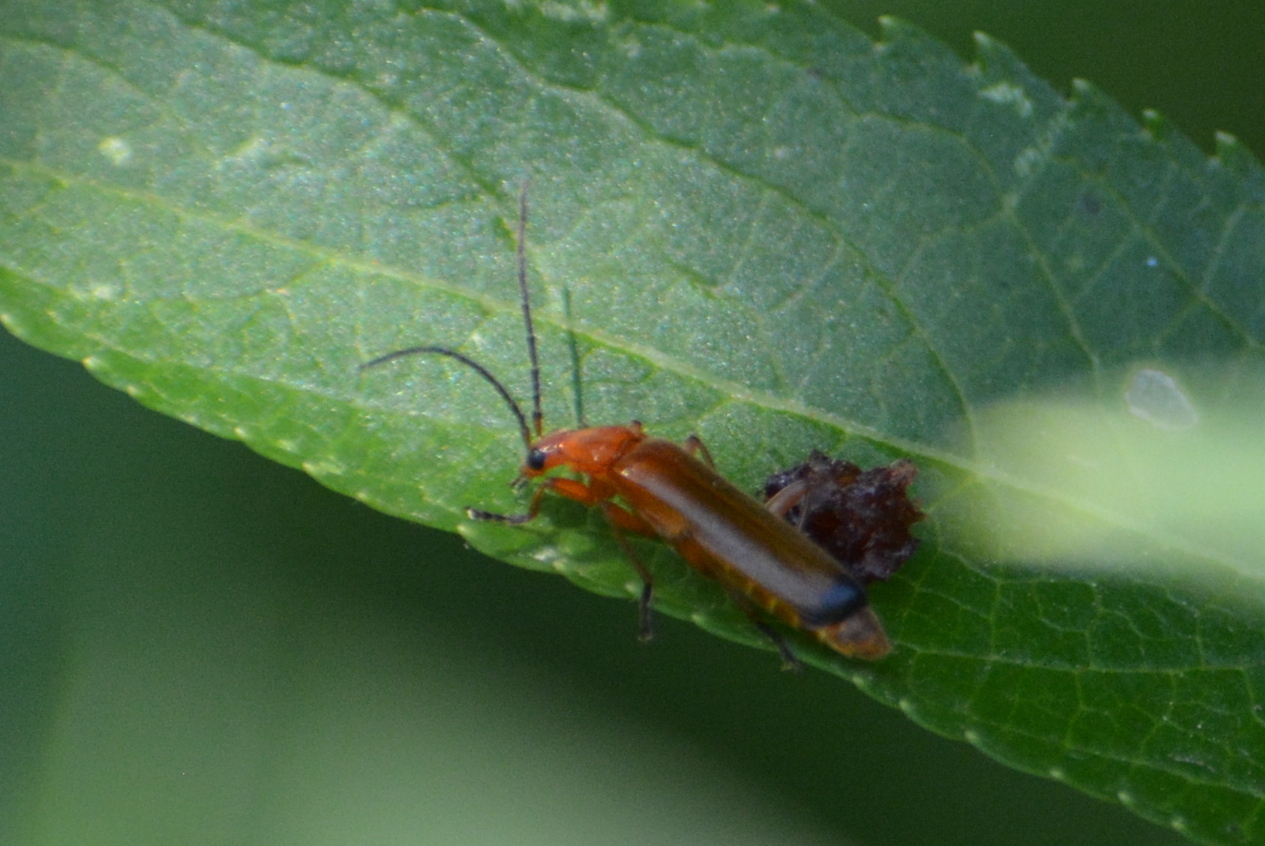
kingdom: Animalia
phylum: Arthropoda
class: Insecta
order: Coleoptera
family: Cantharidae
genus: Rhagonycha
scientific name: Rhagonycha fulva
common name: Common red soldier beetle
